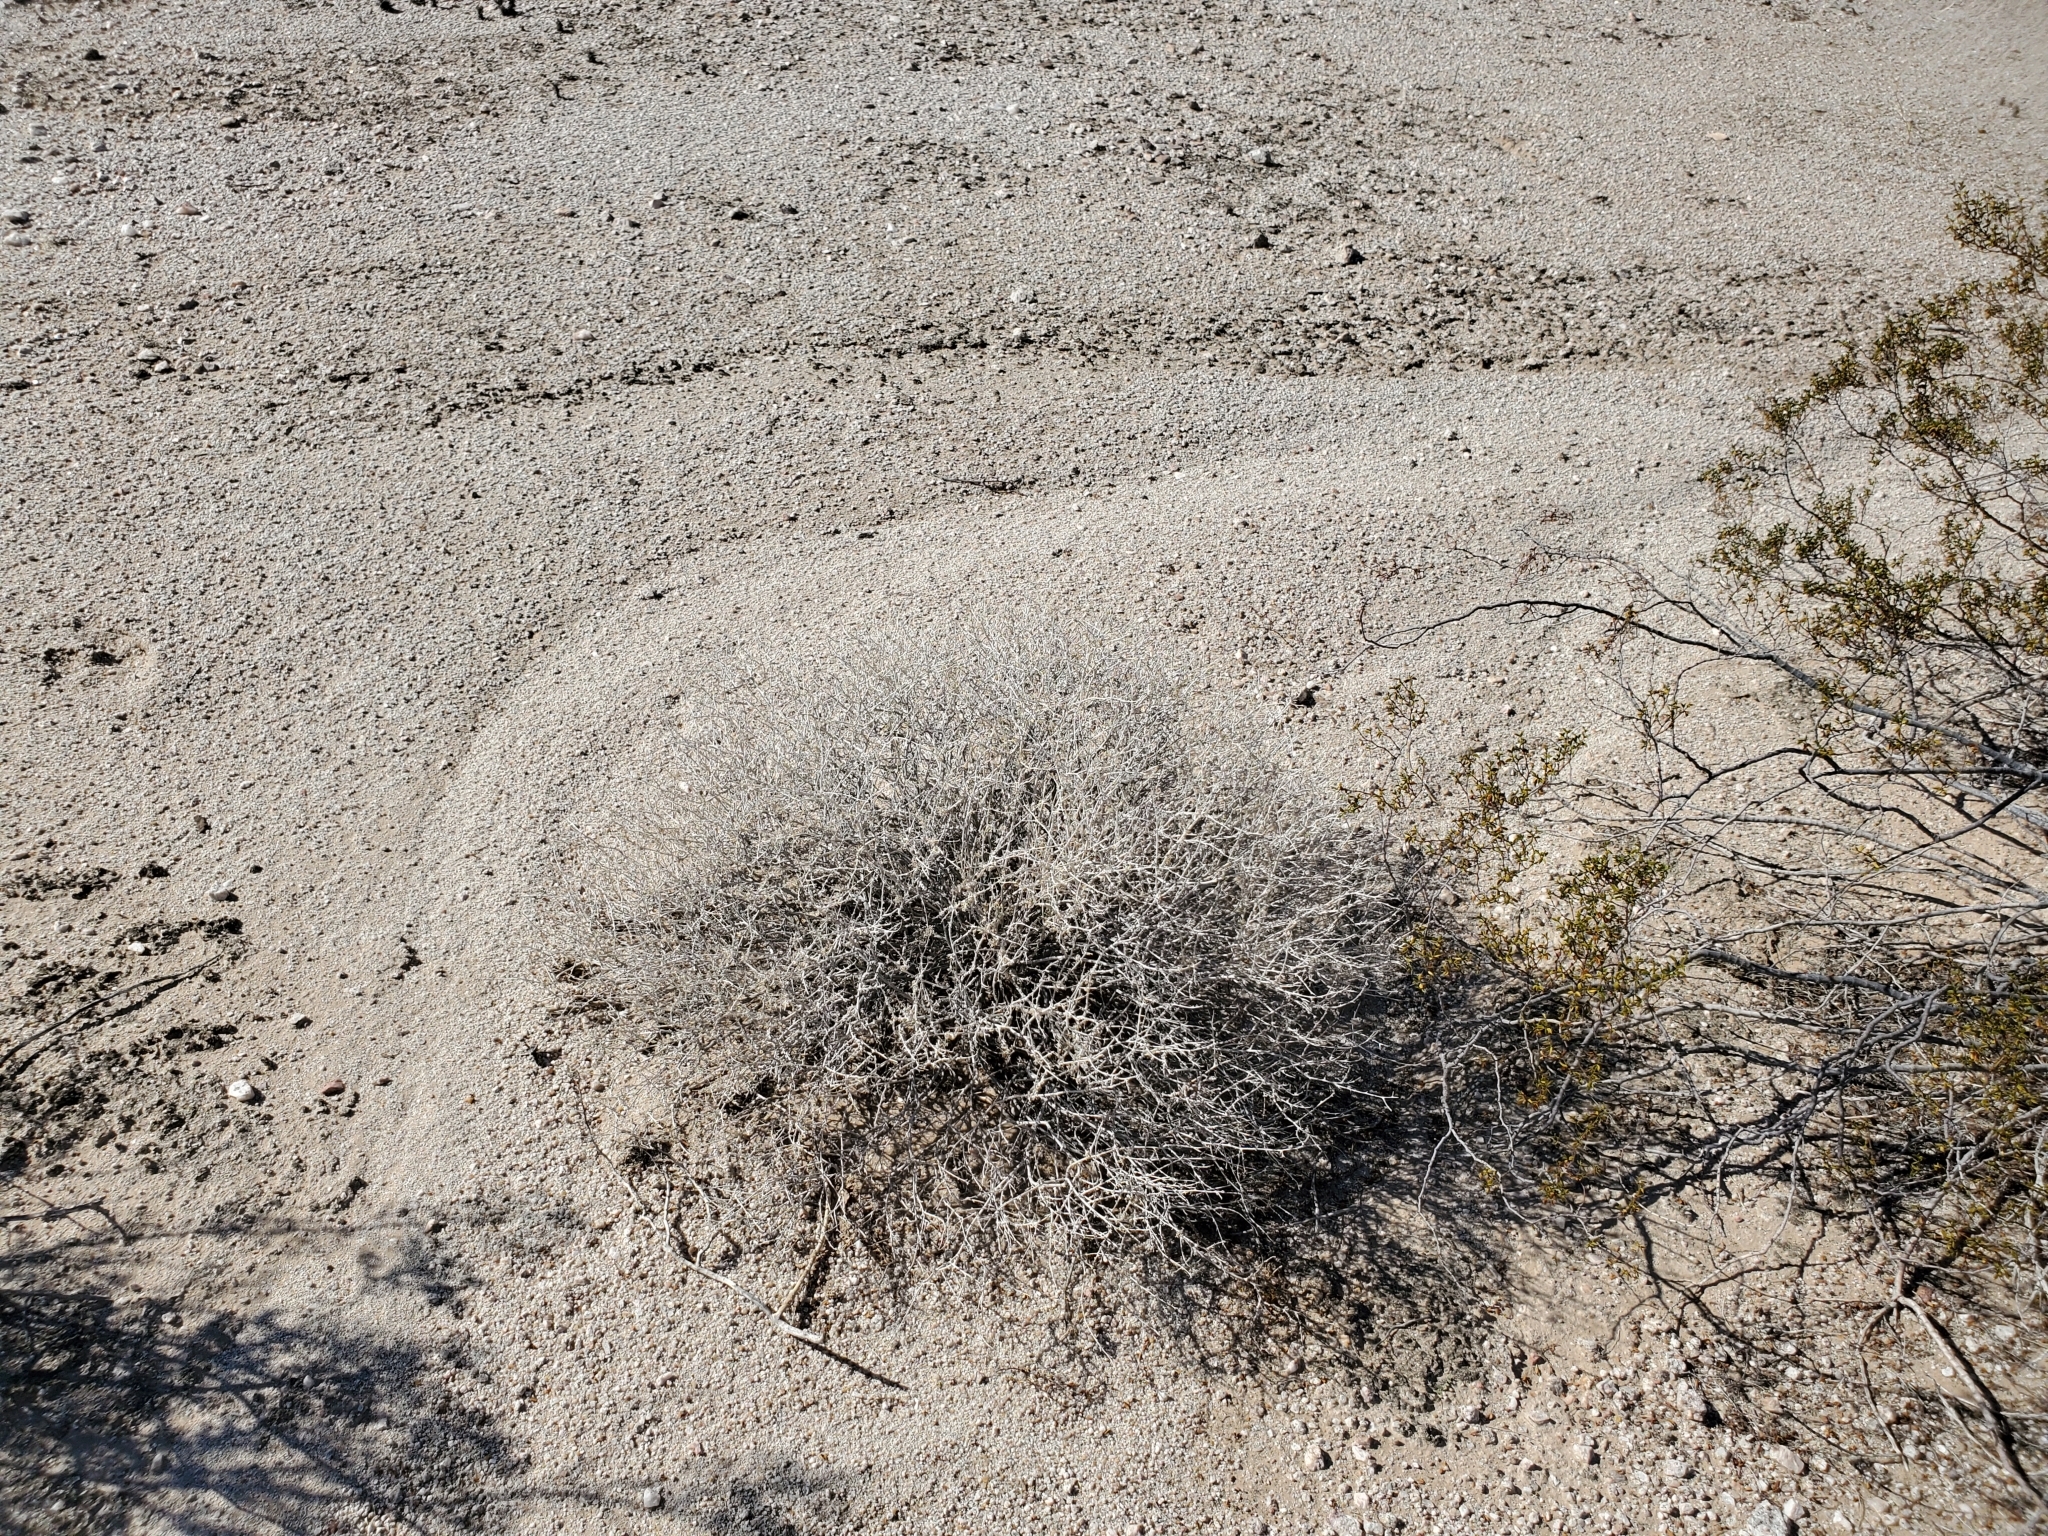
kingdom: Plantae
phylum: Tracheophyta
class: Magnoliopsida
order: Asterales
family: Asteraceae
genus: Ambrosia
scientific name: Ambrosia dumosa
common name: Bur-sage
